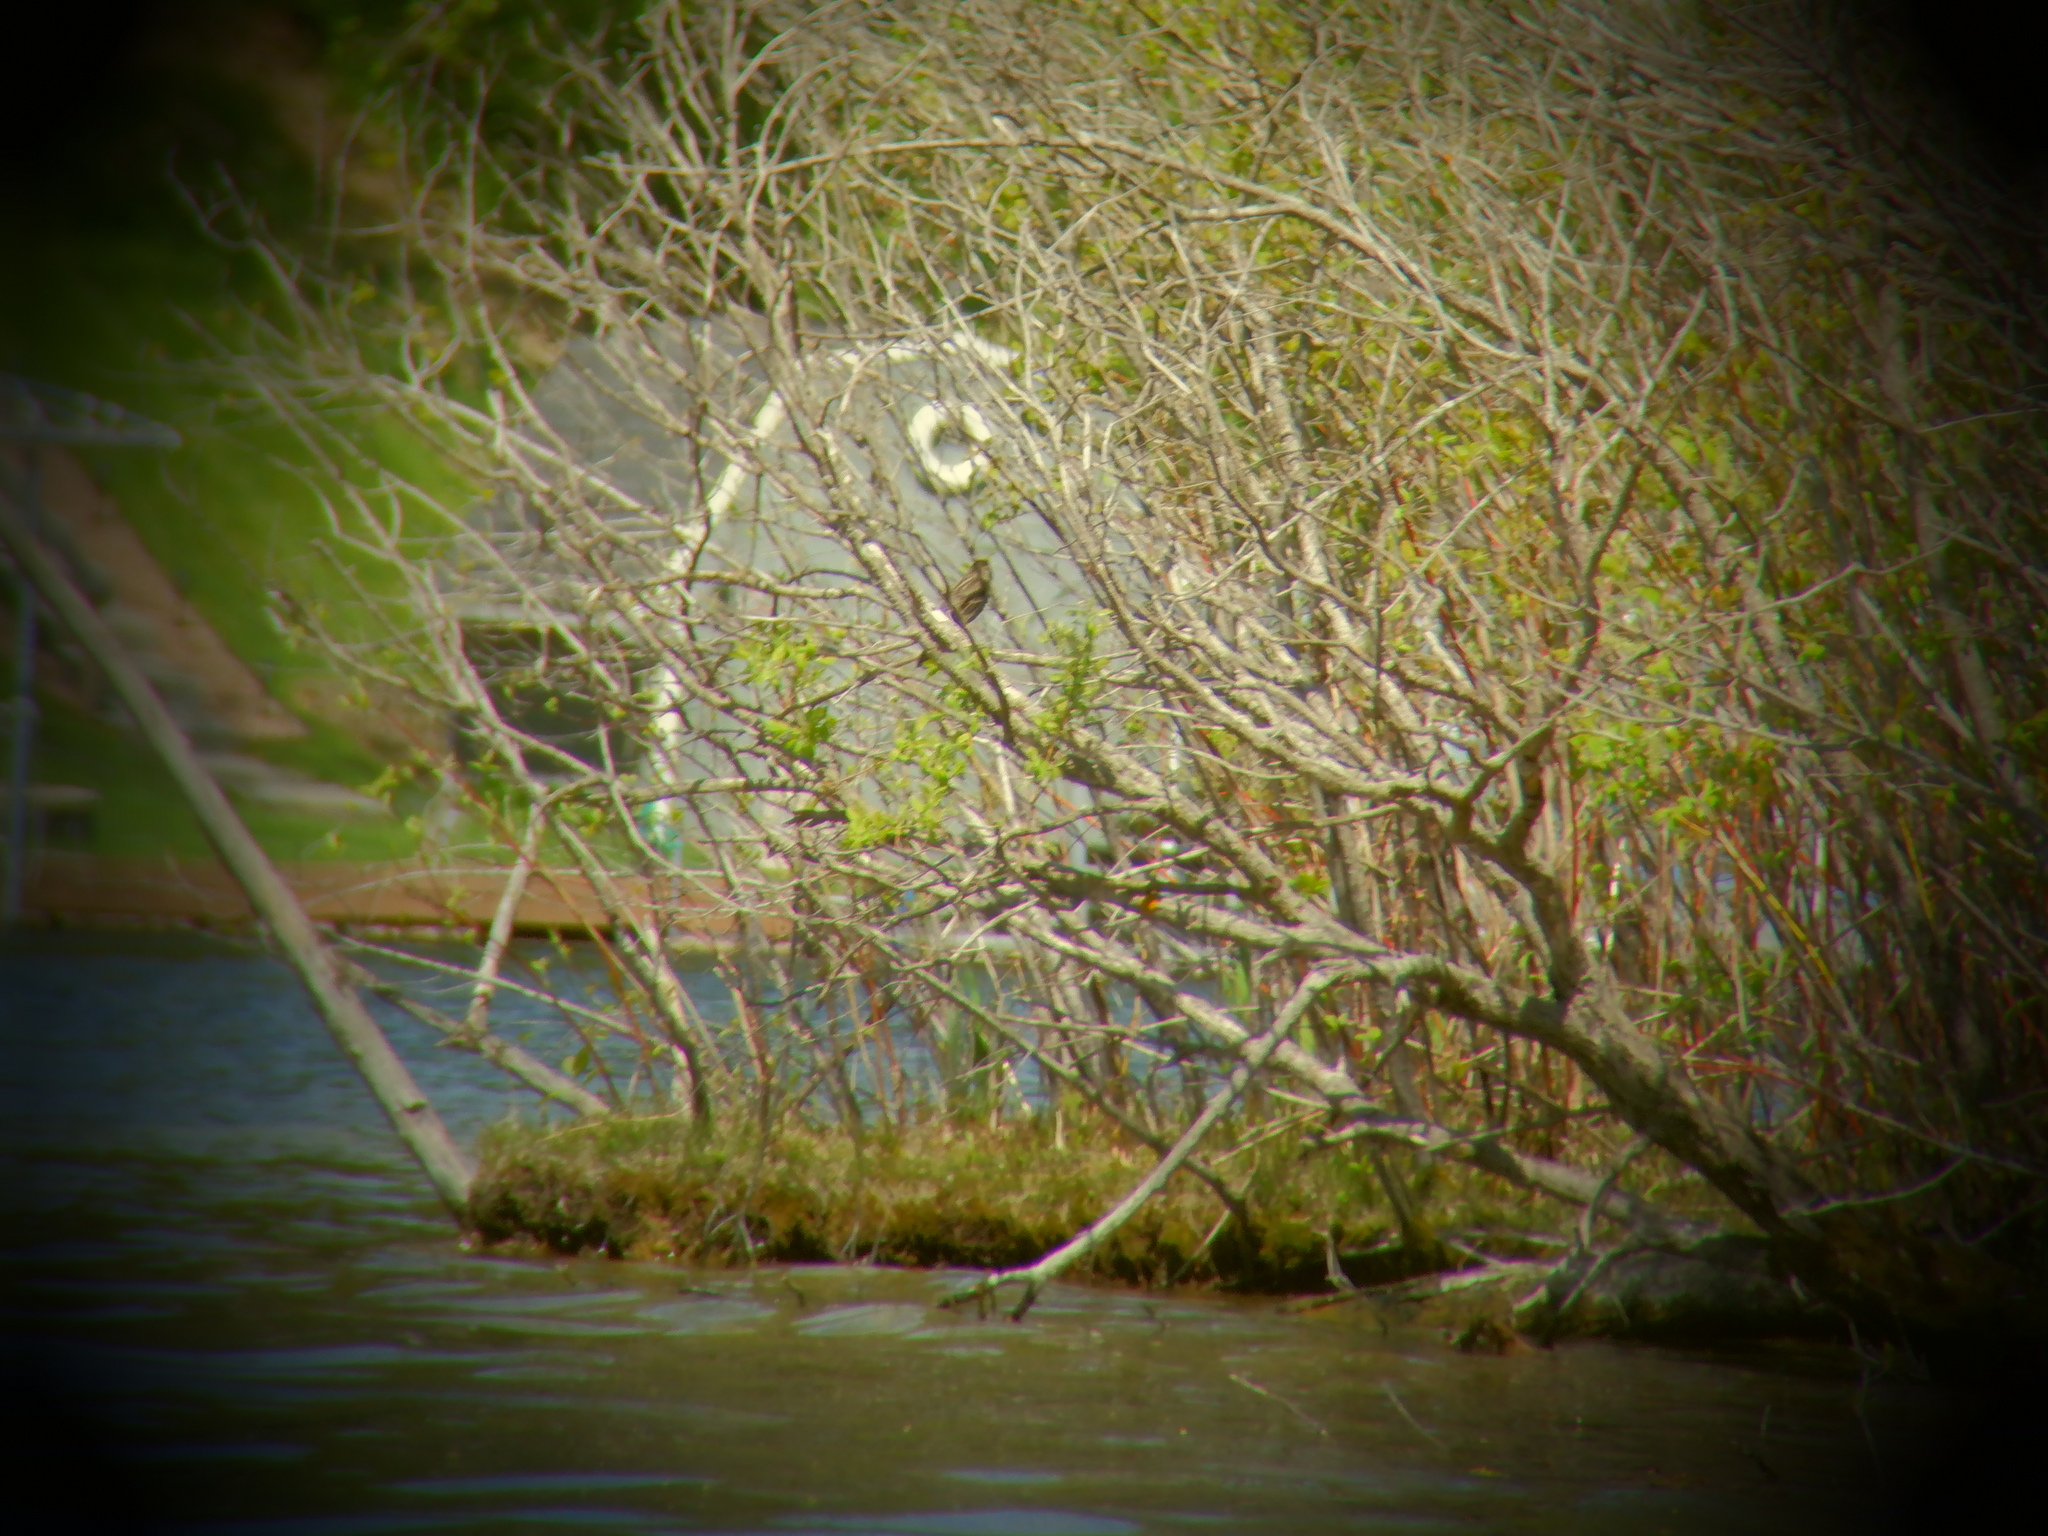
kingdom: Animalia
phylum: Chordata
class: Aves
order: Passeriformes
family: Icteridae
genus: Agelaius
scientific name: Agelaius phoeniceus
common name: Red-winged blackbird
